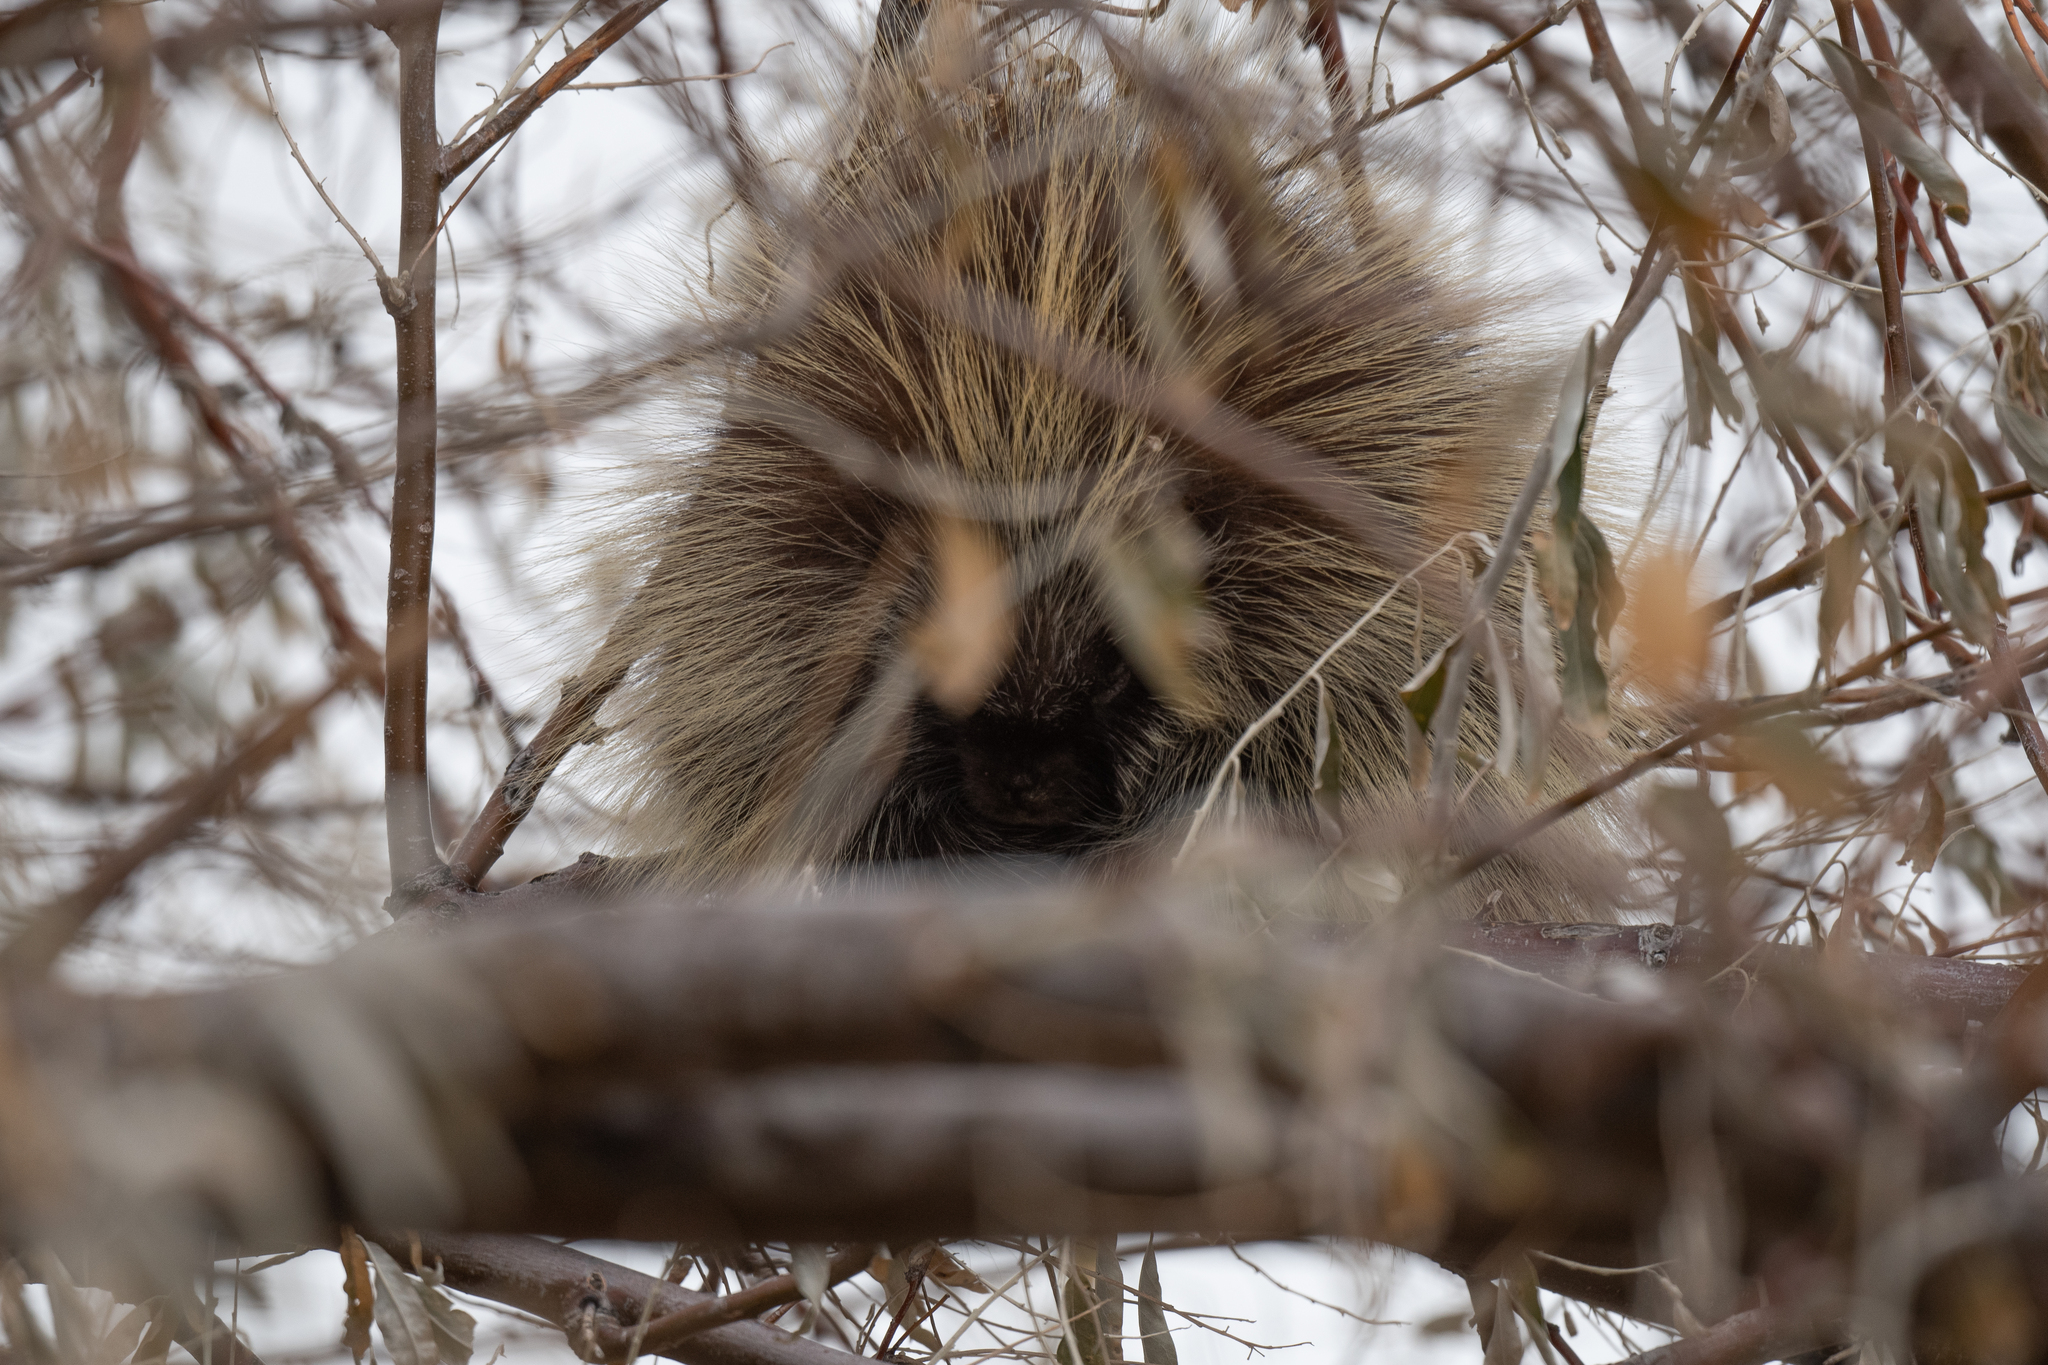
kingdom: Animalia
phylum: Chordata
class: Mammalia
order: Rodentia
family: Erethizontidae
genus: Erethizon
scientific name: Erethizon dorsatus
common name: North american porcupine
